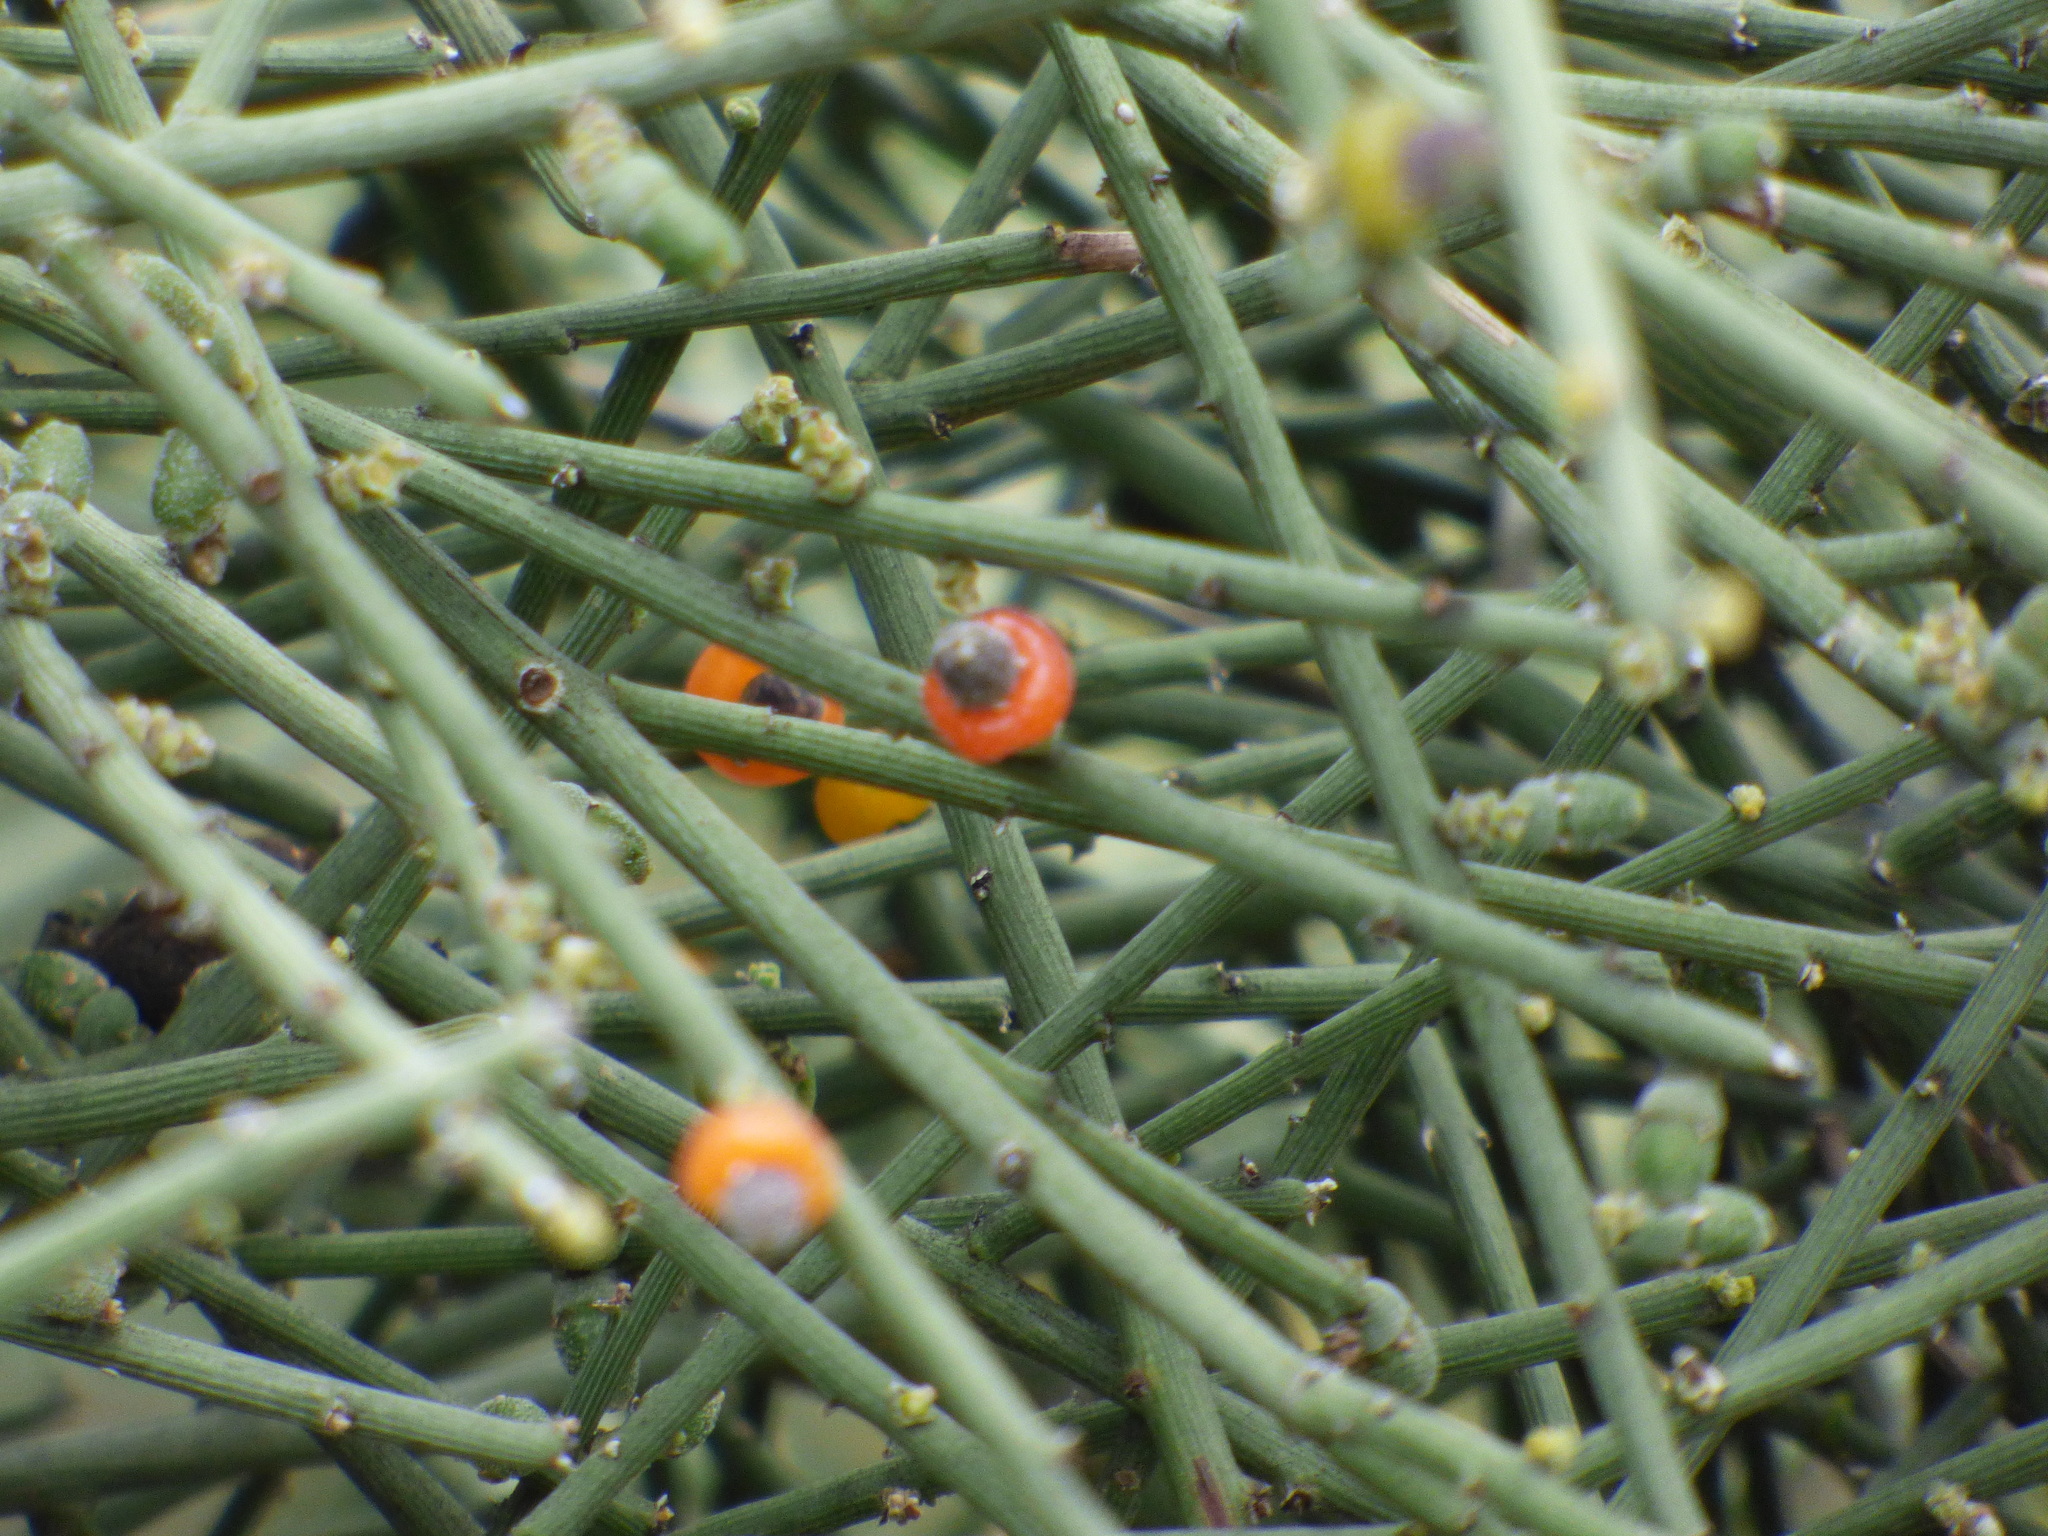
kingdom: Plantae
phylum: Tracheophyta
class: Magnoliopsida
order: Santalales
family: Santalaceae
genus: Exocarpos
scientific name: Exocarpos aphyllus
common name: Leafless ballart
